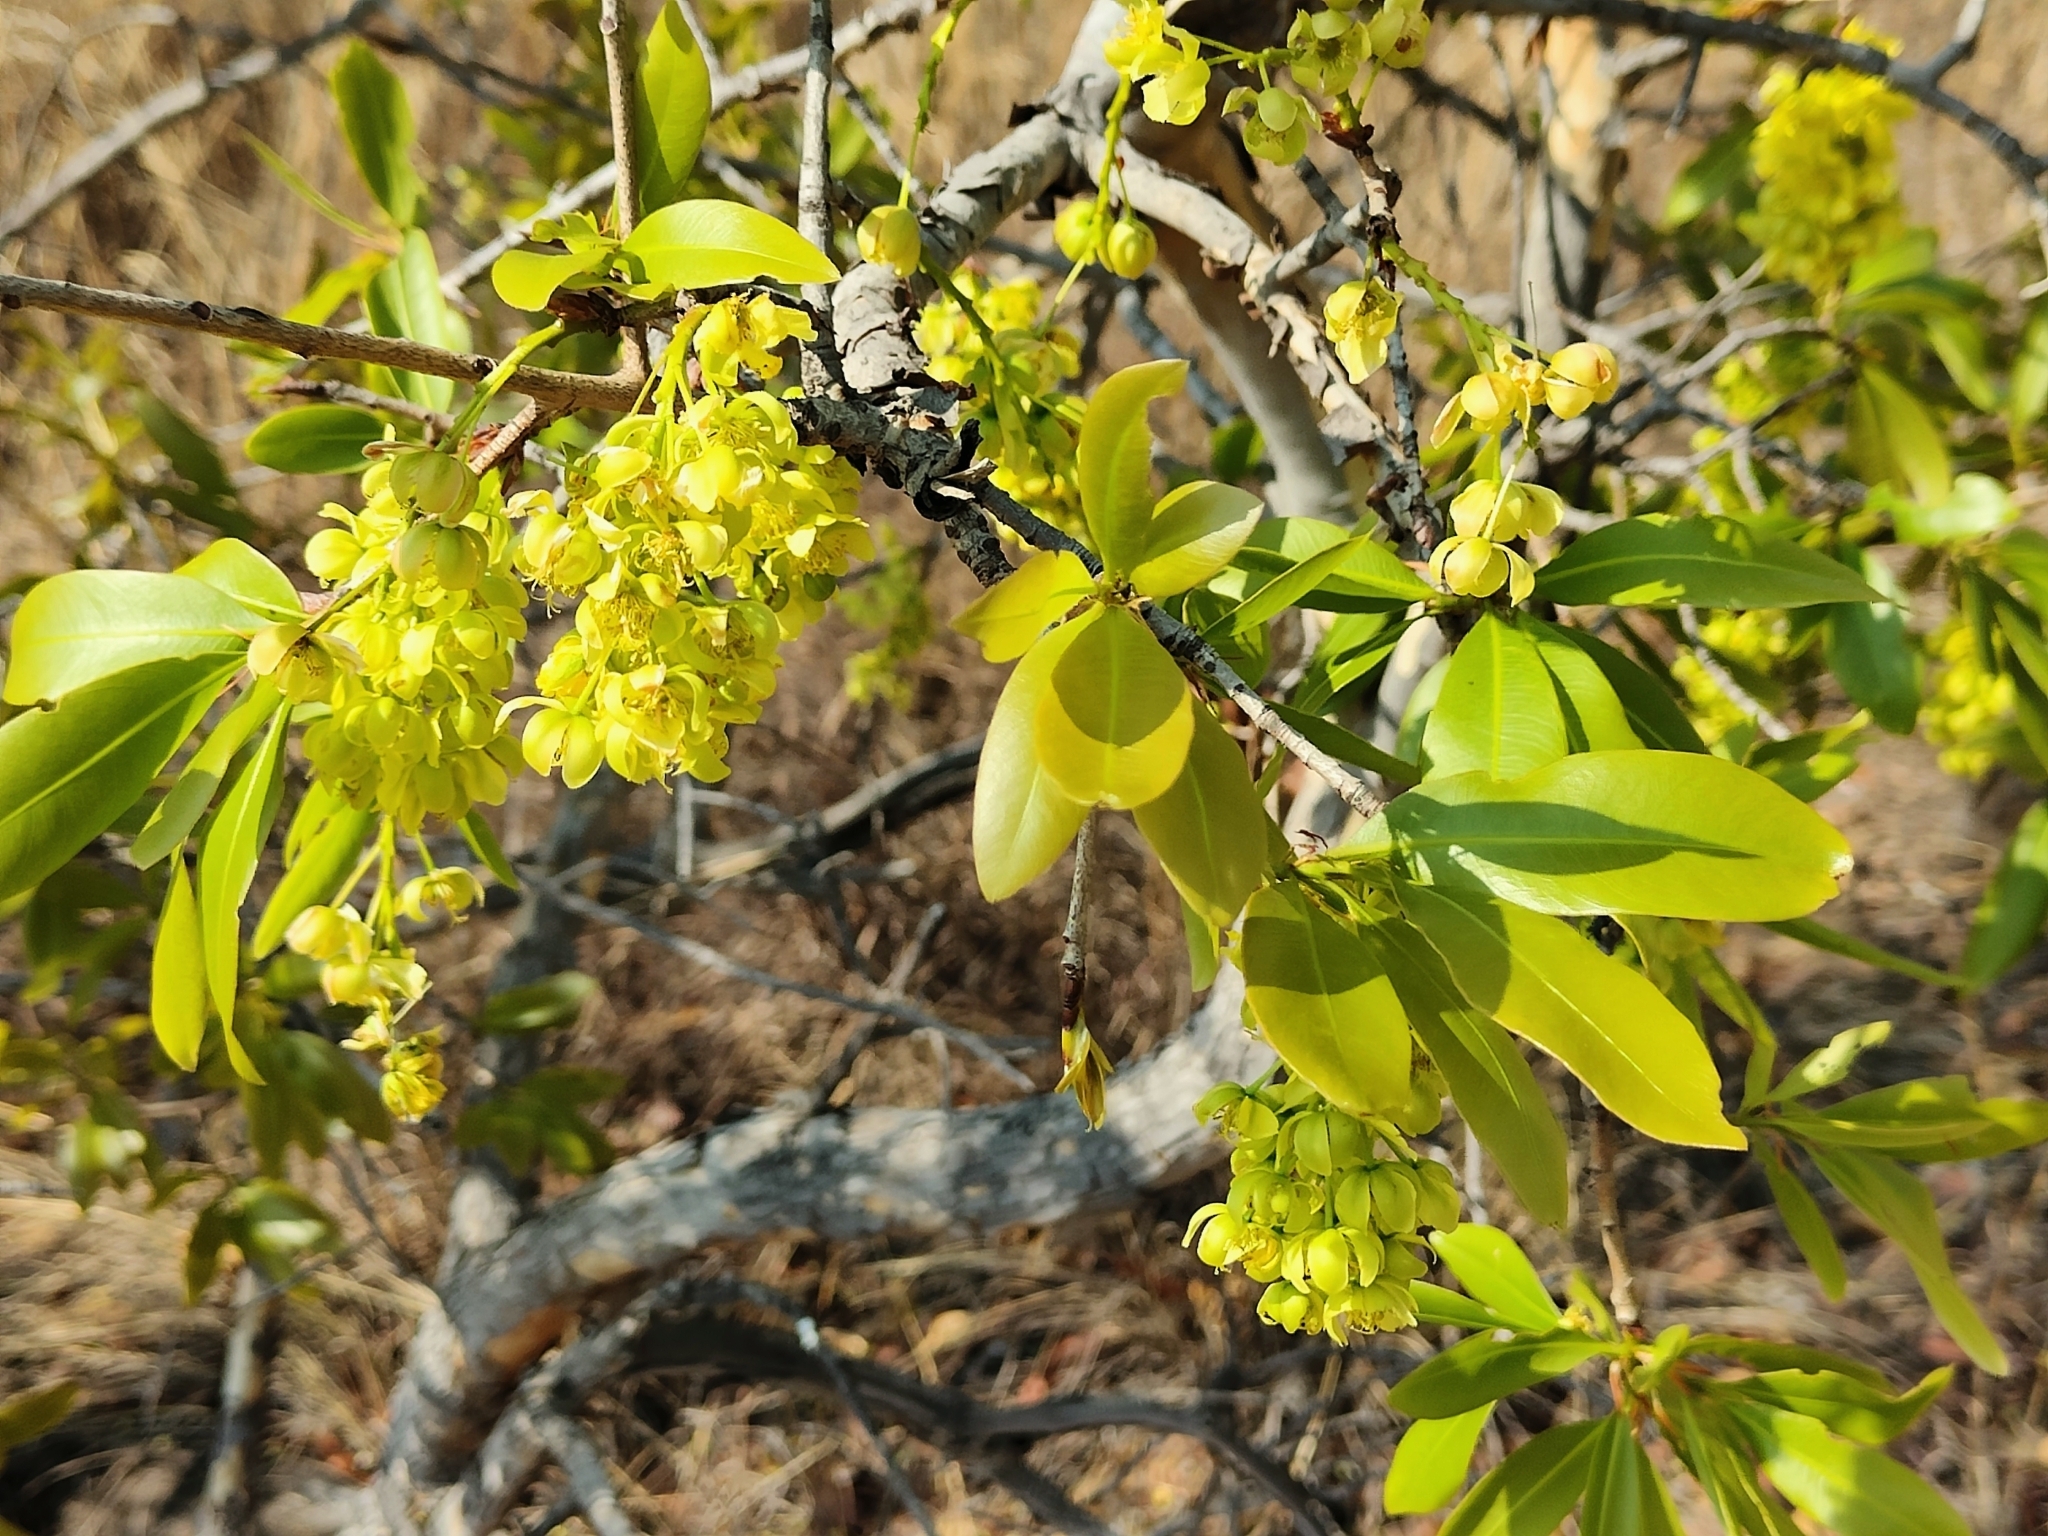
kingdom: Plantae
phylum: Tracheophyta
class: Magnoliopsida
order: Malpighiales
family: Ochnaceae
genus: Ochna
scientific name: Ochna pulchra
